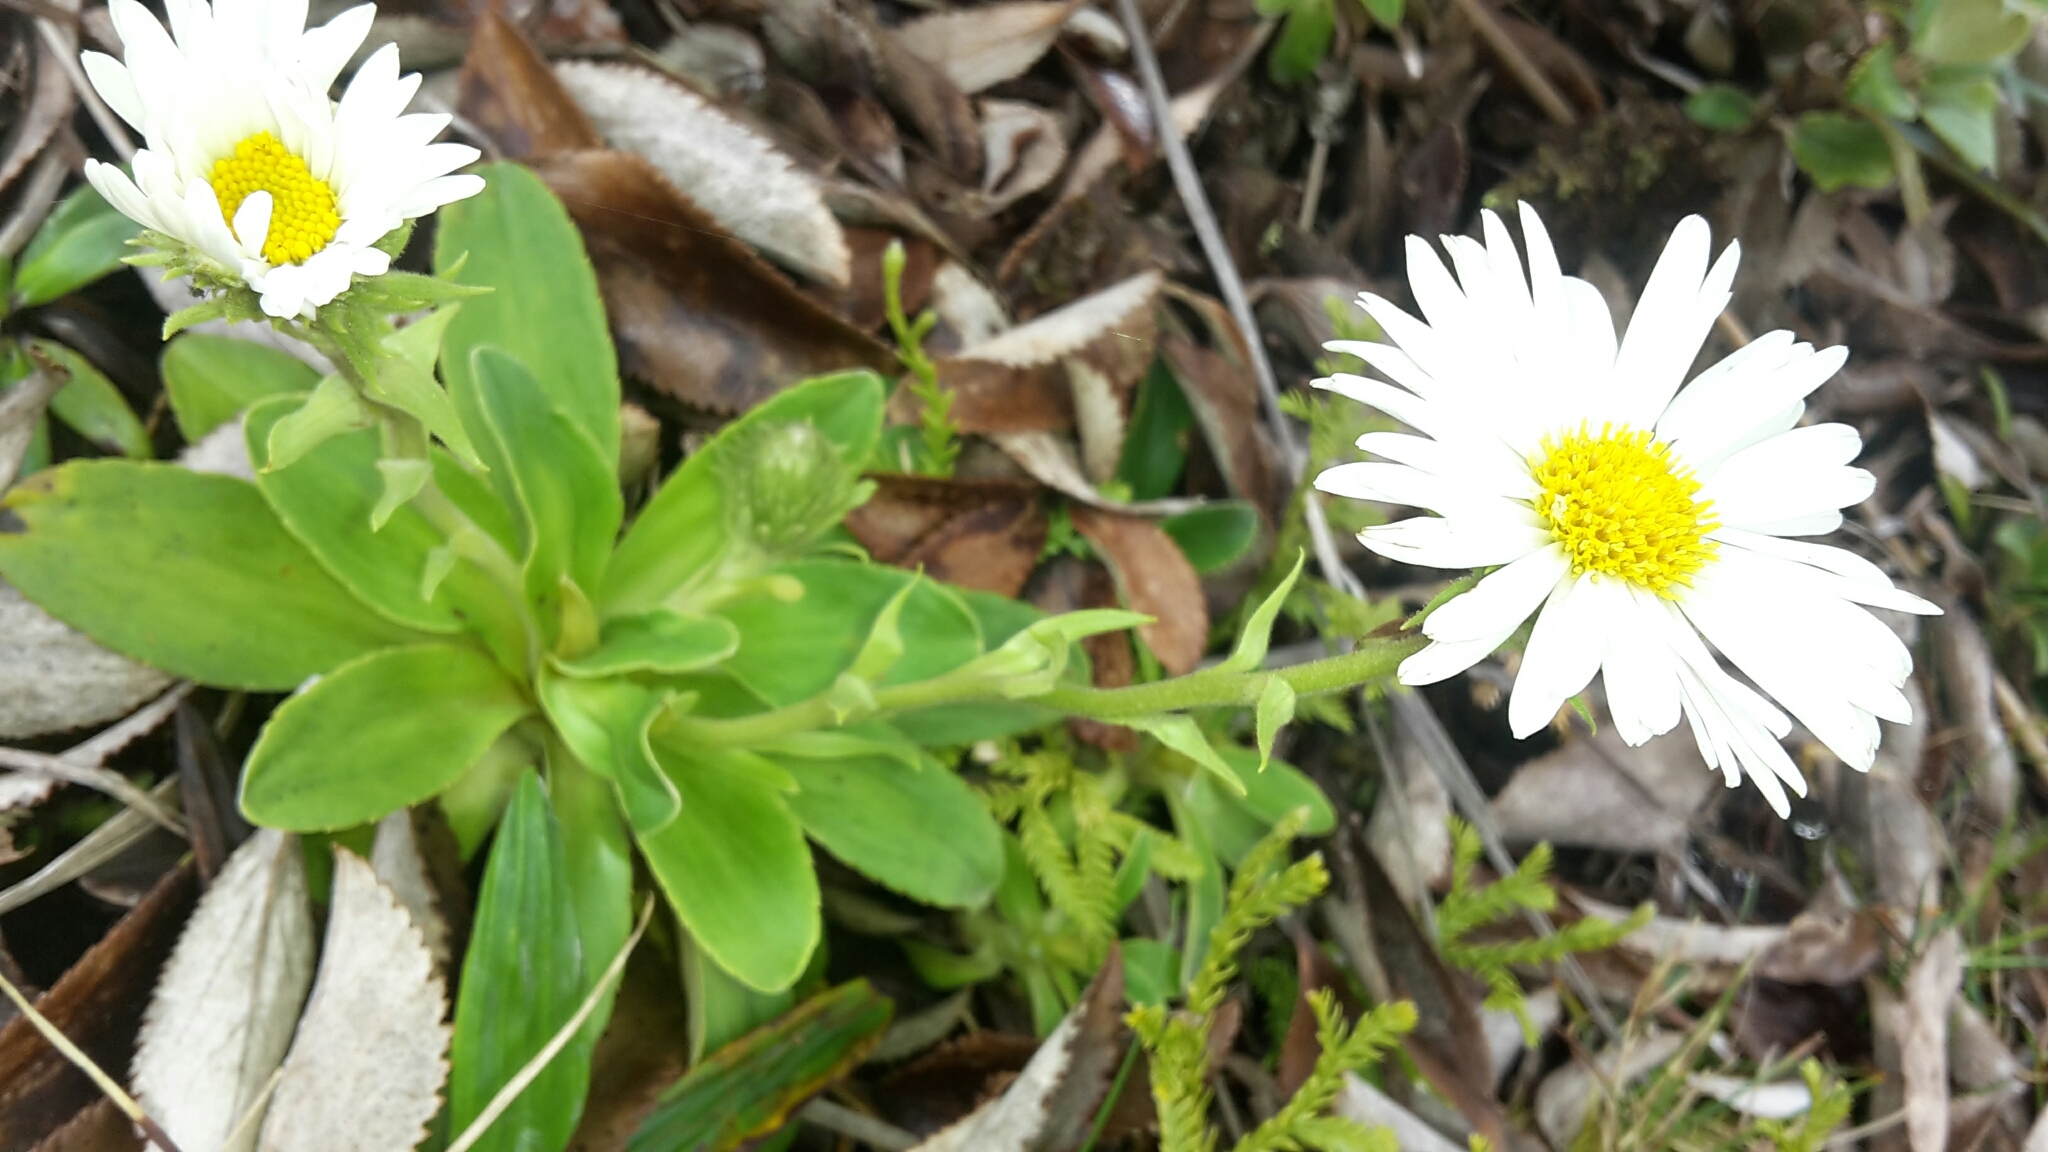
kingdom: Plantae
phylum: Tracheophyta
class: Magnoliopsida
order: Asterales
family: Asteraceae
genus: Celmisia
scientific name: Celmisia hieraciifolia
